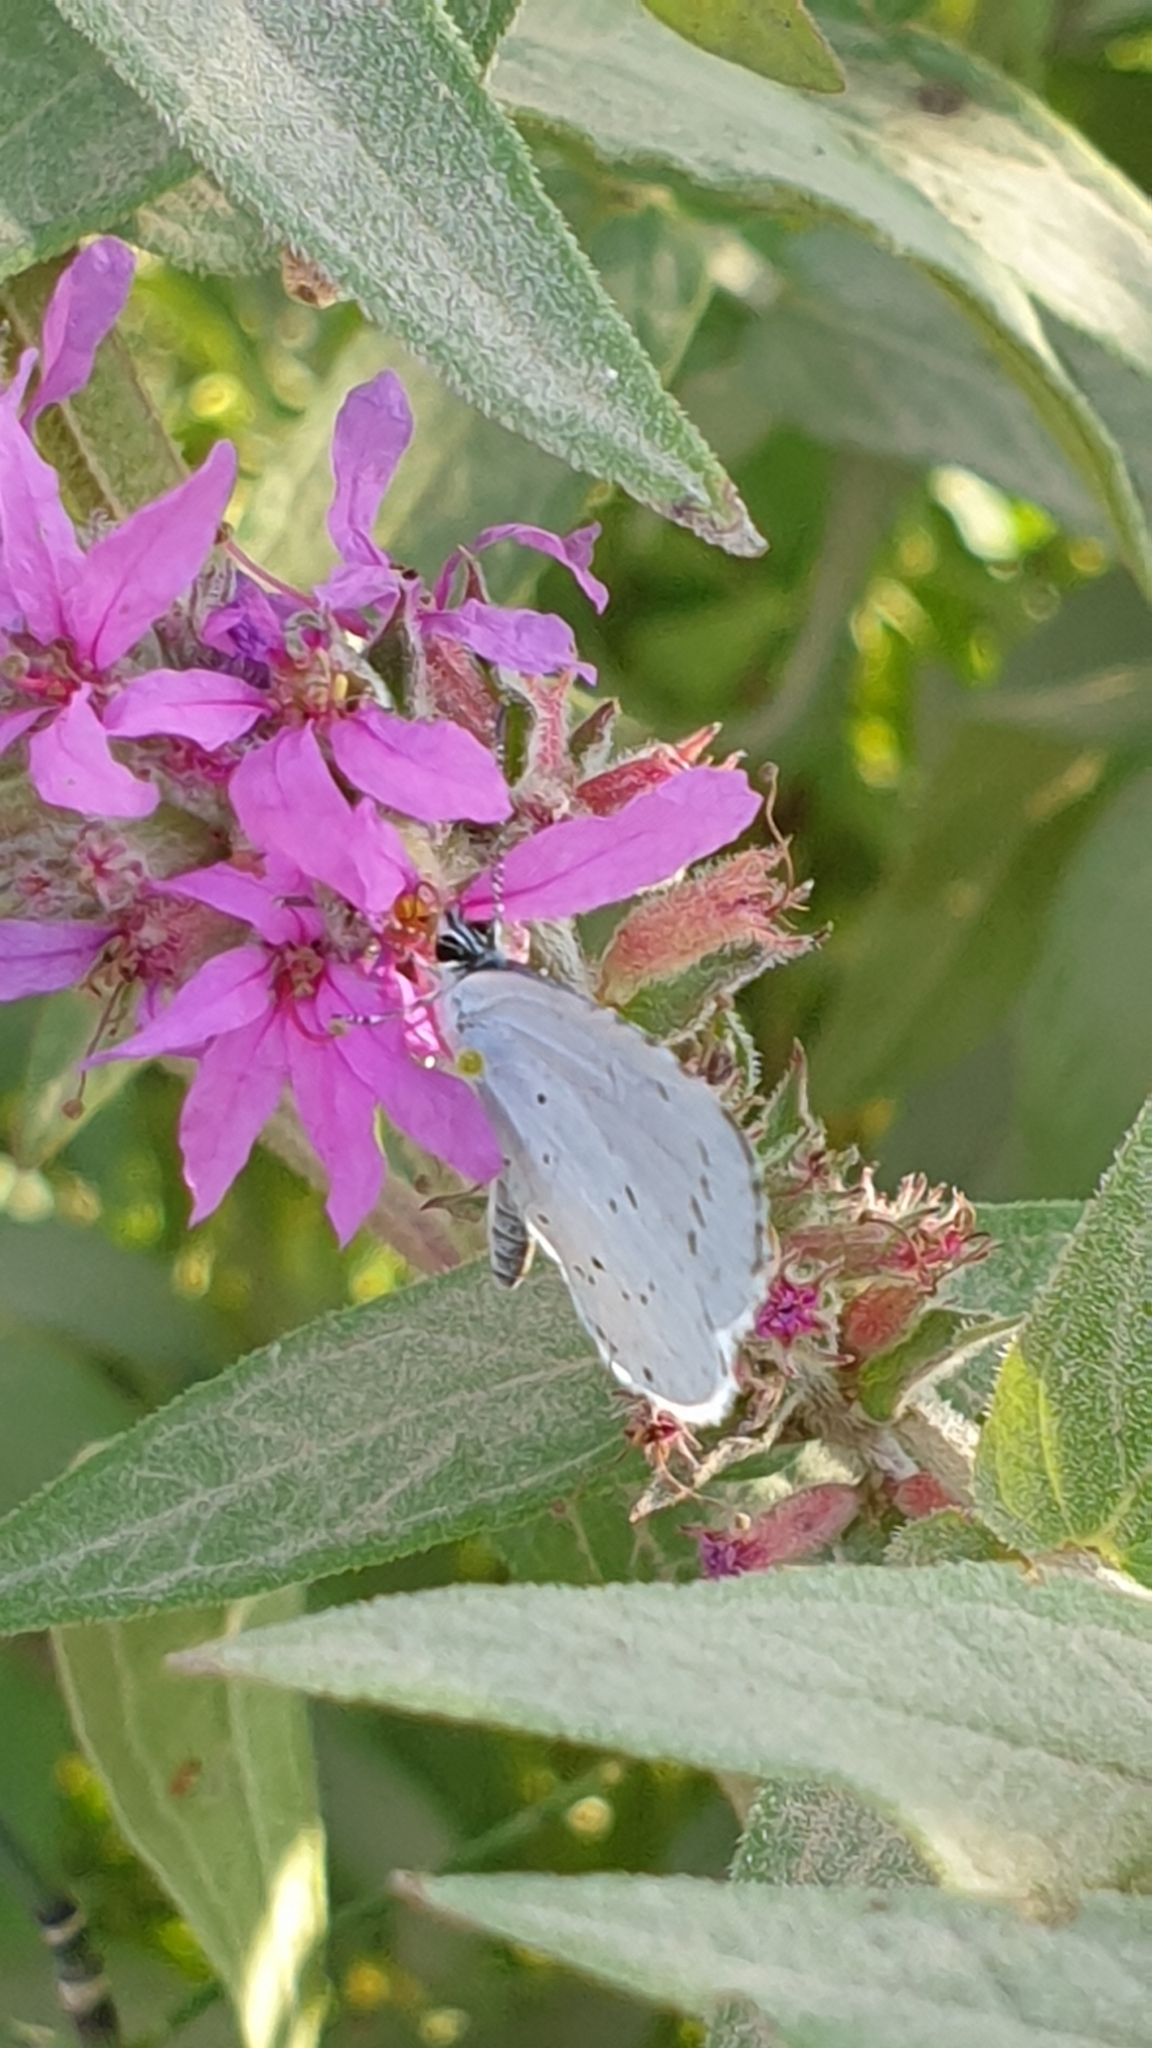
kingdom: Animalia
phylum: Arthropoda
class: Insecta
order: Lepidoptera
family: Lycaenidae
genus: Celastrina
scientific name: Celastrina argiolus
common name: Holly blue
